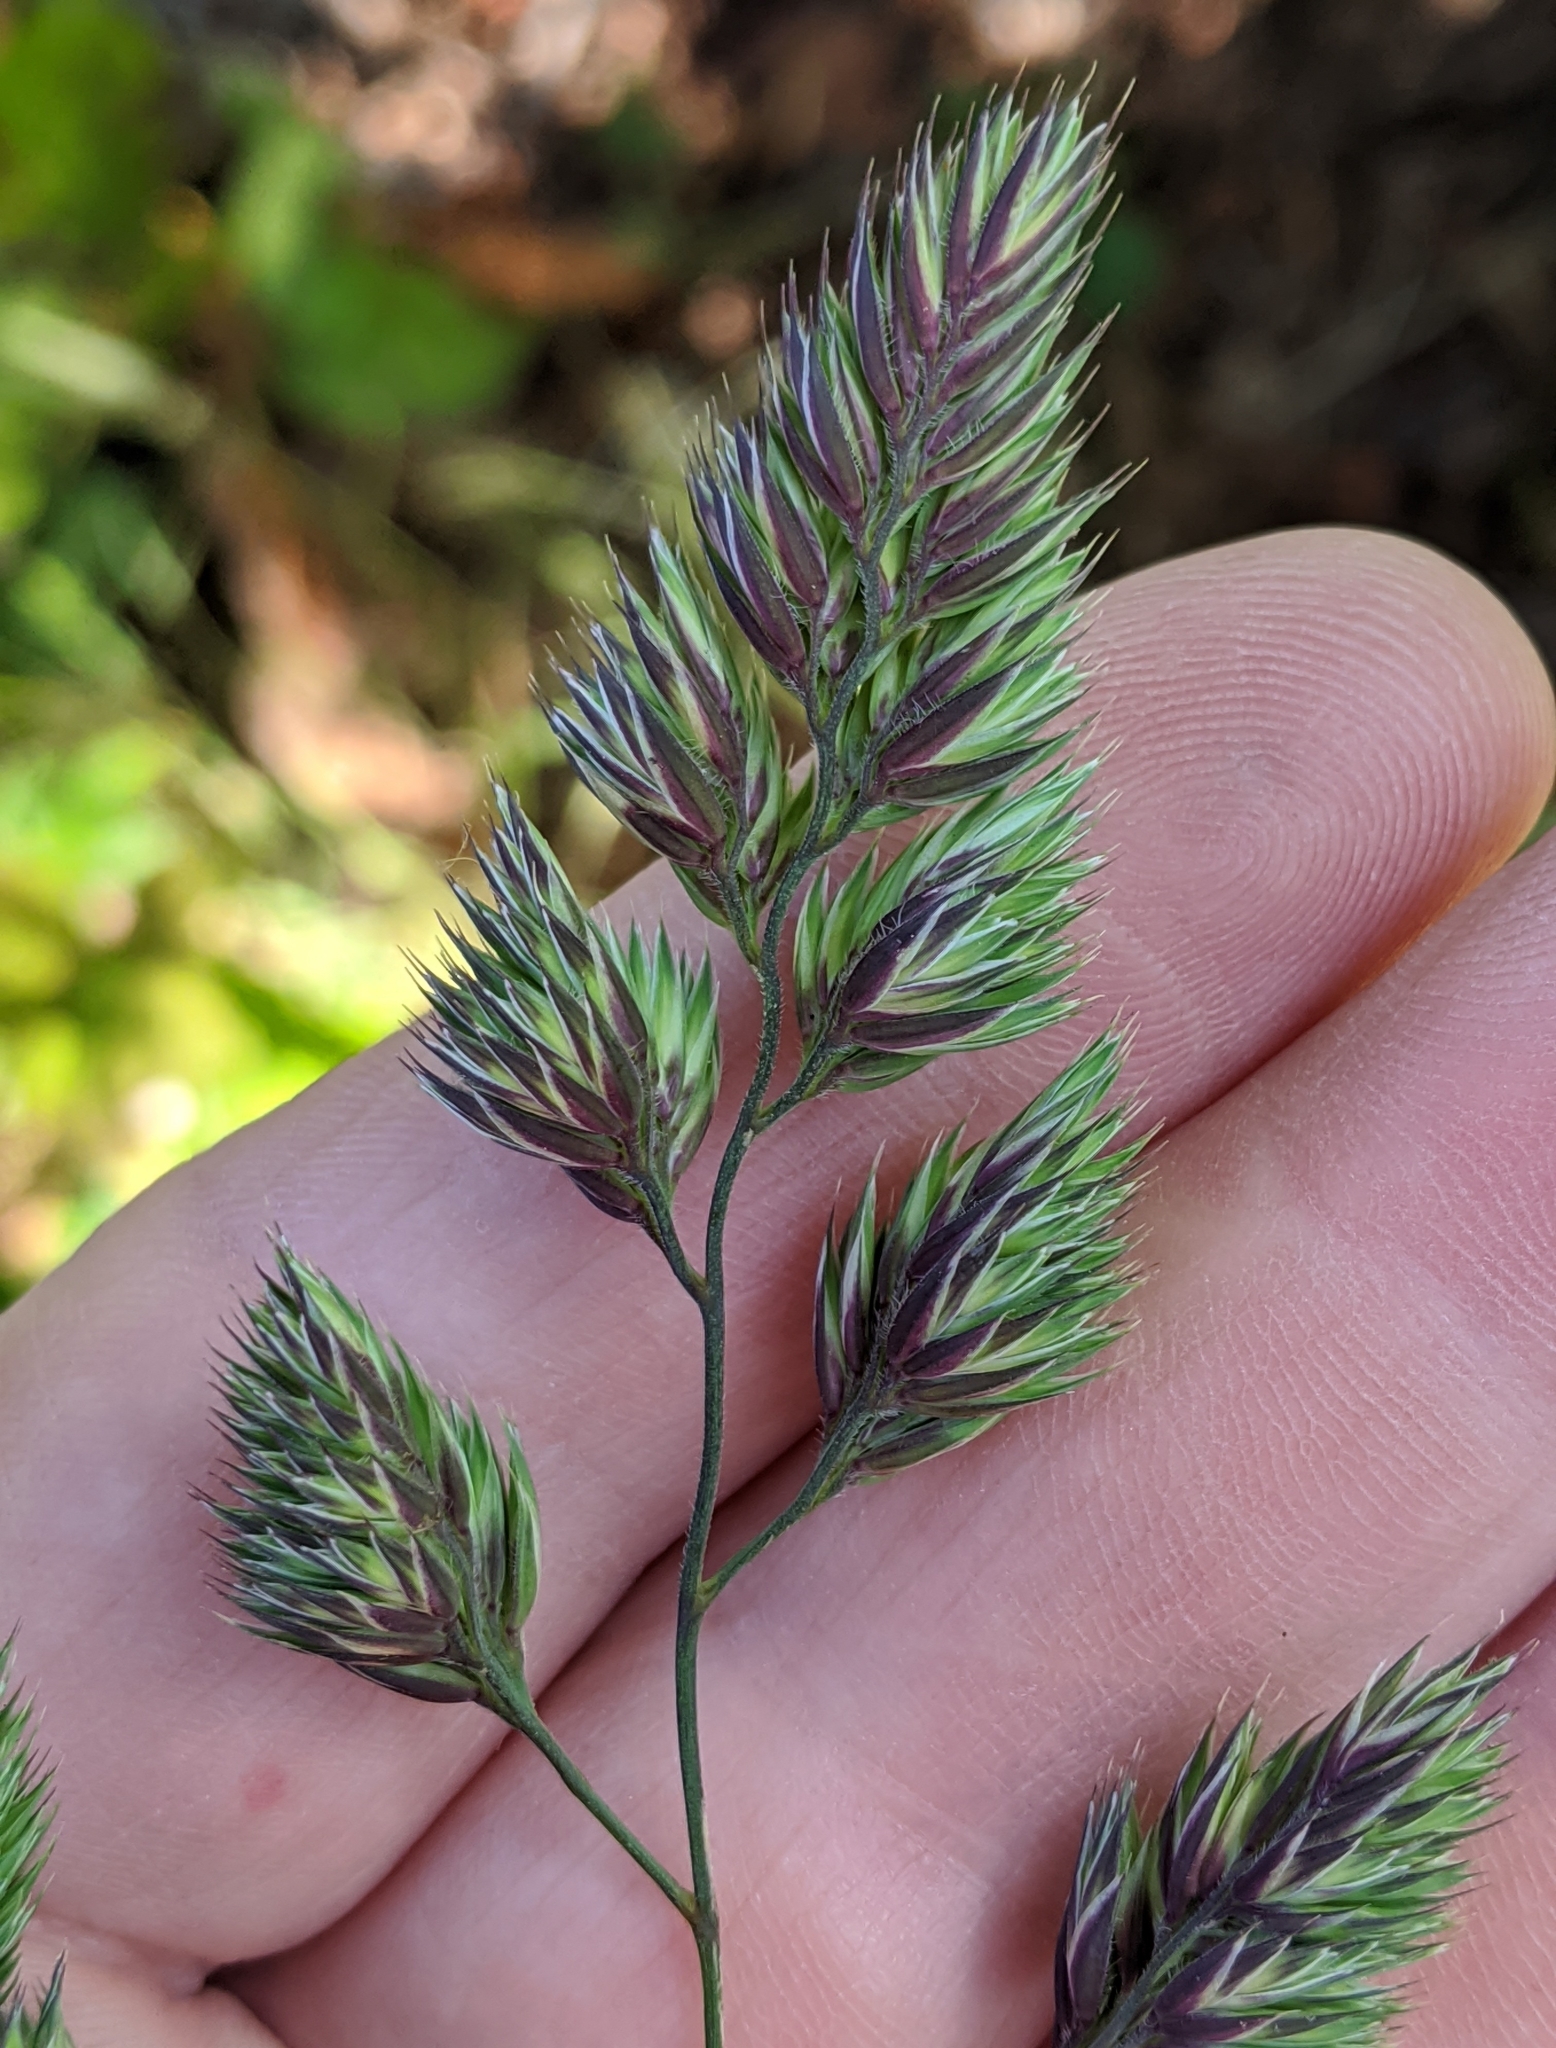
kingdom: Plantae
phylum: Tracheophyta
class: Liliopsida
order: Poales
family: Poaceae
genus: Dactylis
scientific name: Dactylis glomerata
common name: Orchardgrass
